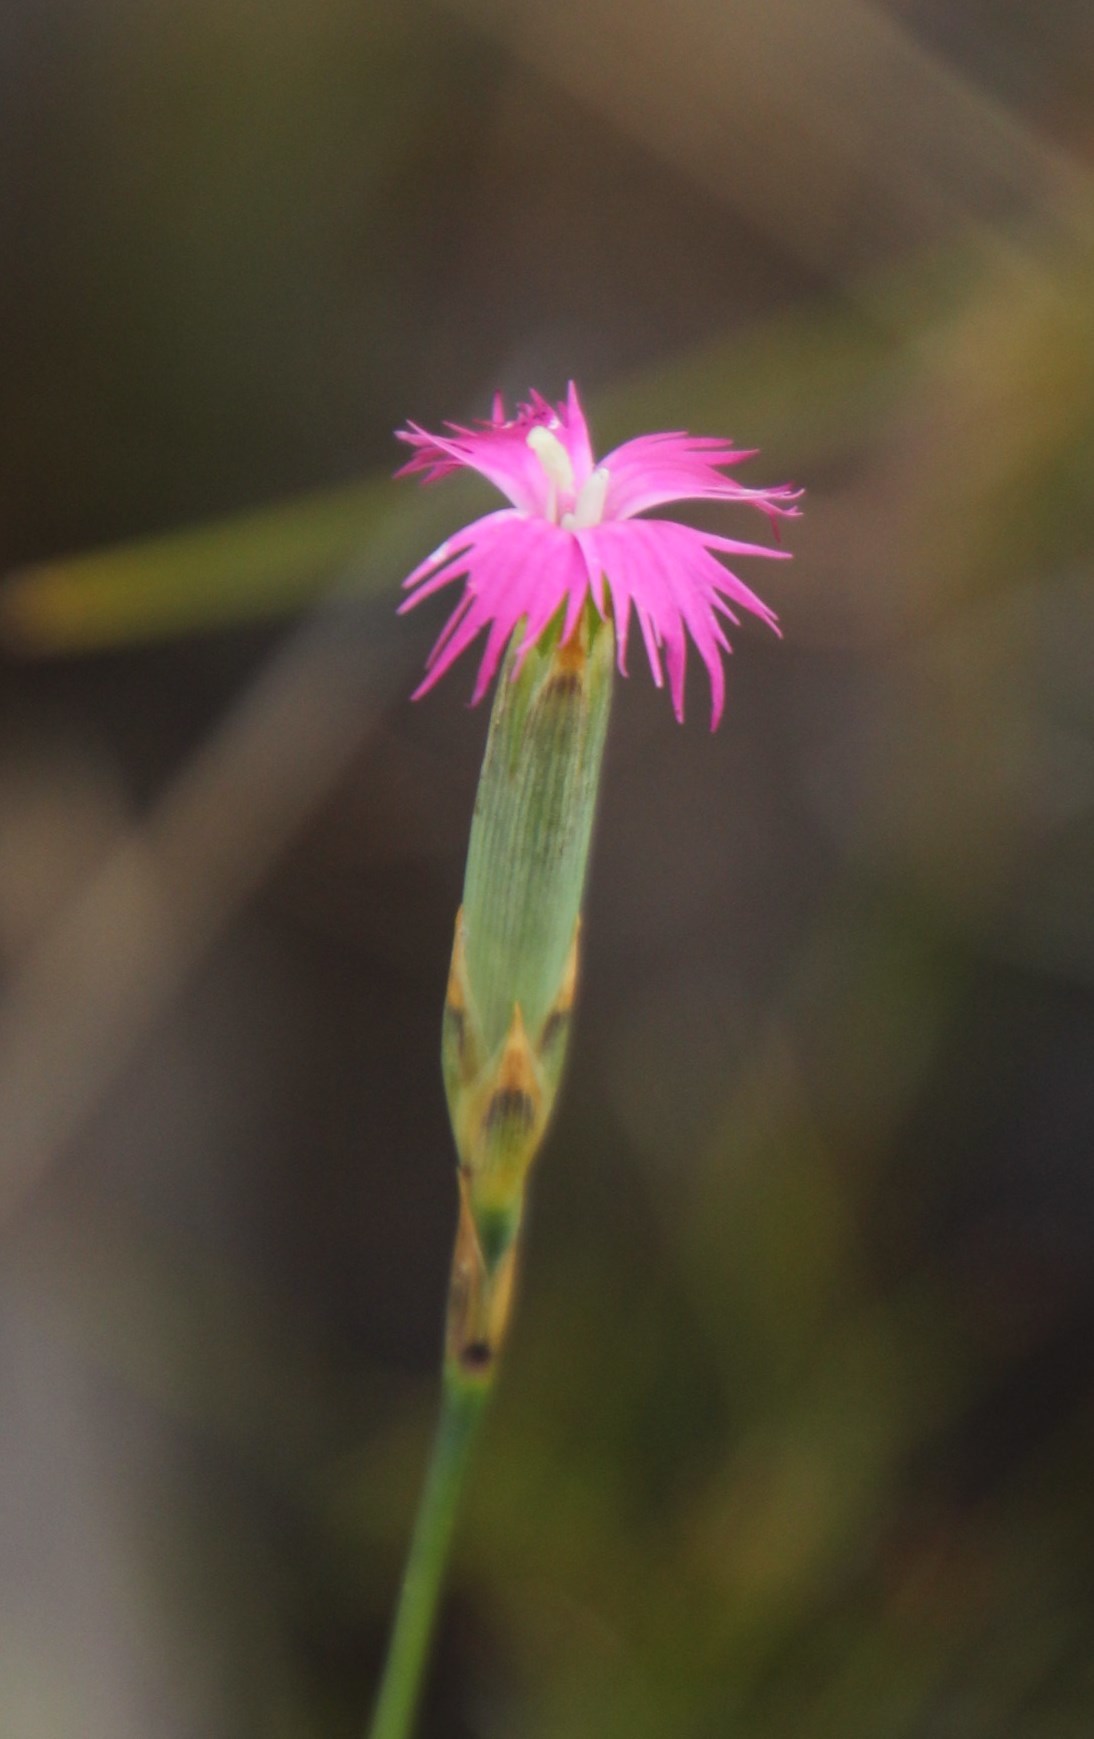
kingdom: Plantae
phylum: Tracheophyta
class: Magnoliopsida
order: Caryophyllales
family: Caryophyllaceae
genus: Dianthus
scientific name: Dianthus bolusii
